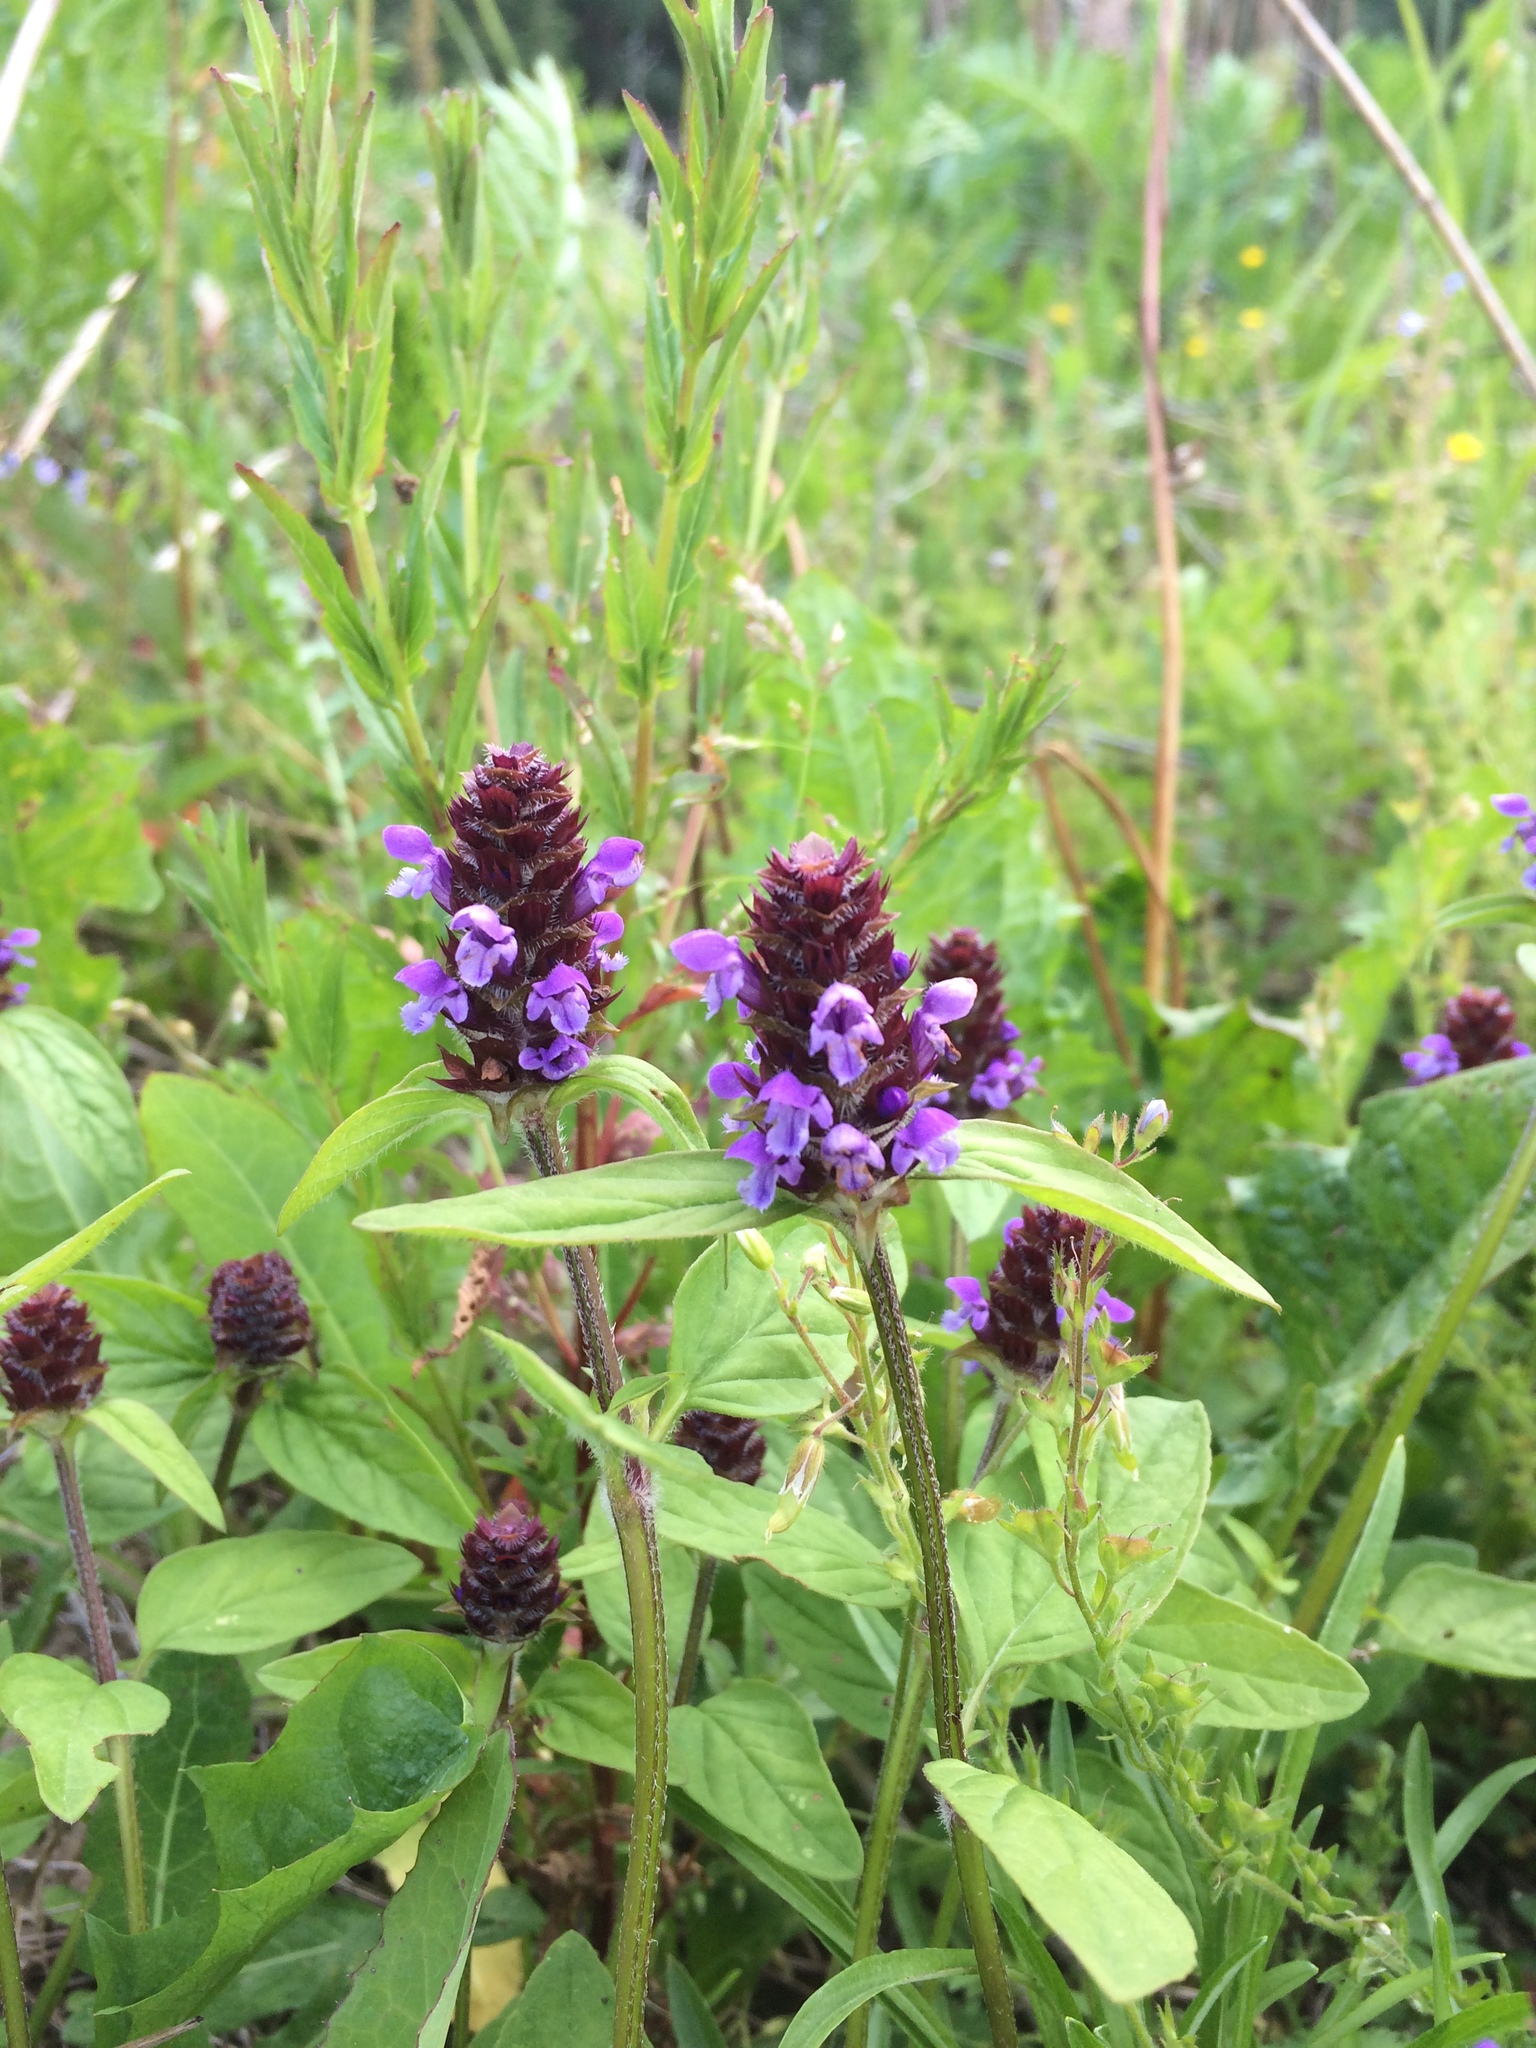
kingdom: Plantae
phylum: Tracheophyta
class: Magnoliopsida
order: Lamiales
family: Lamiaceae
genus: Prunella
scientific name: Prunella vulgaris
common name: Heal-all
